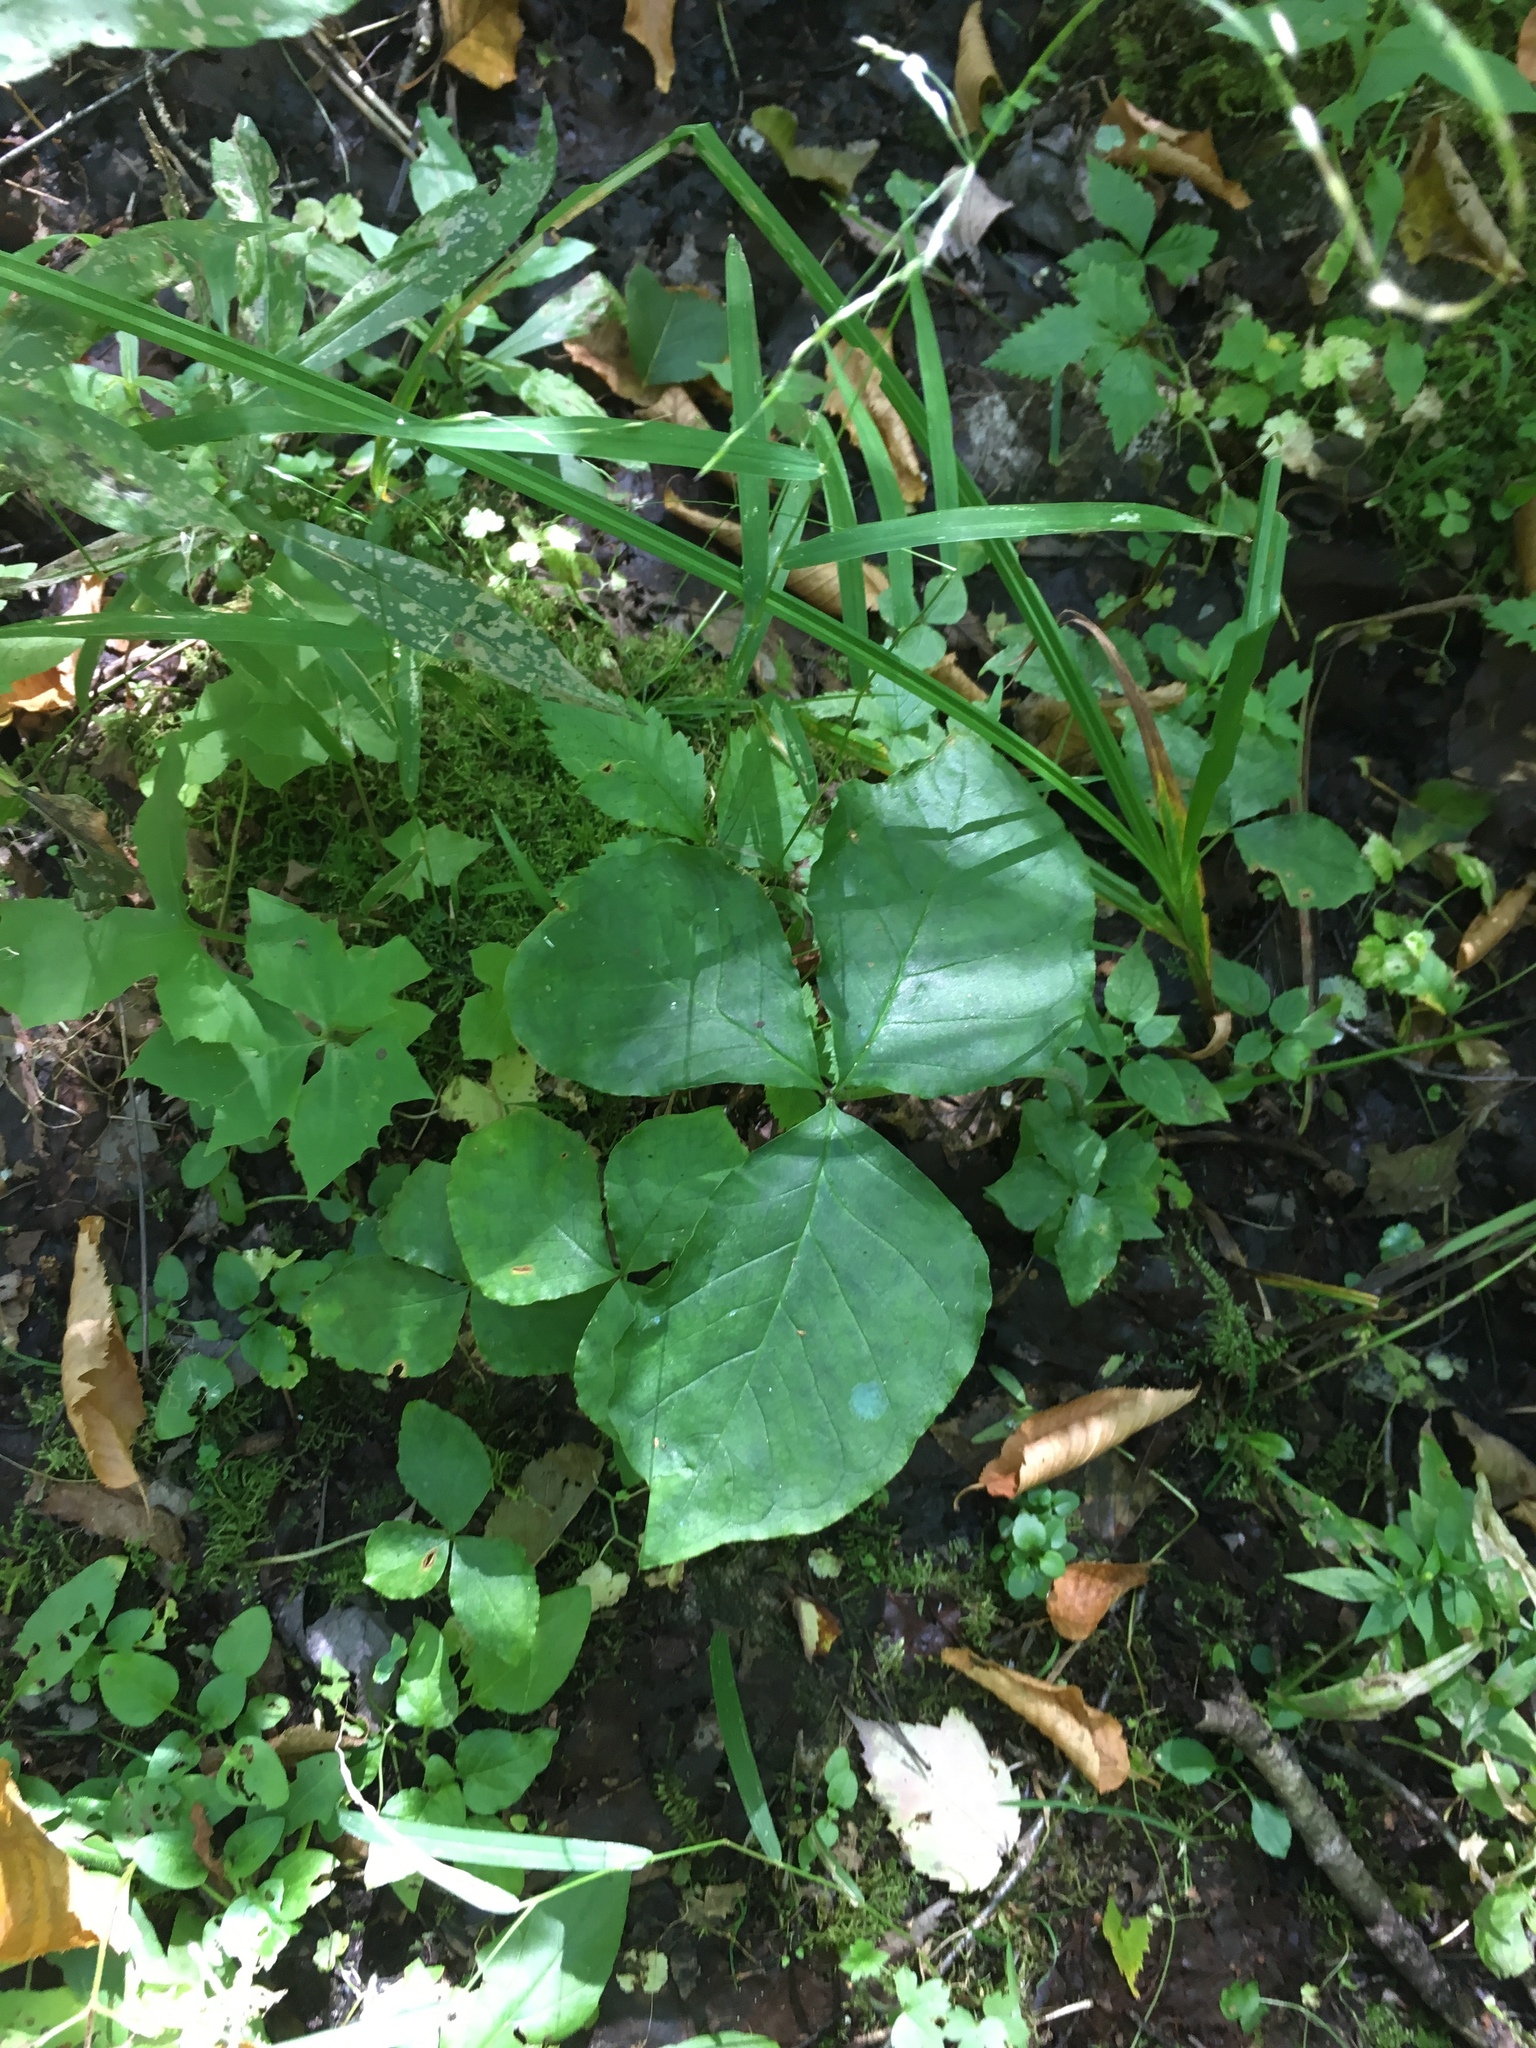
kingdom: Plantae
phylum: Tracheophyta
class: Liliopsida
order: Alismatales
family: Araceae
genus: Arisaema
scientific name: Arisaema triphyllum
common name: Jack-in-the-pulpit
